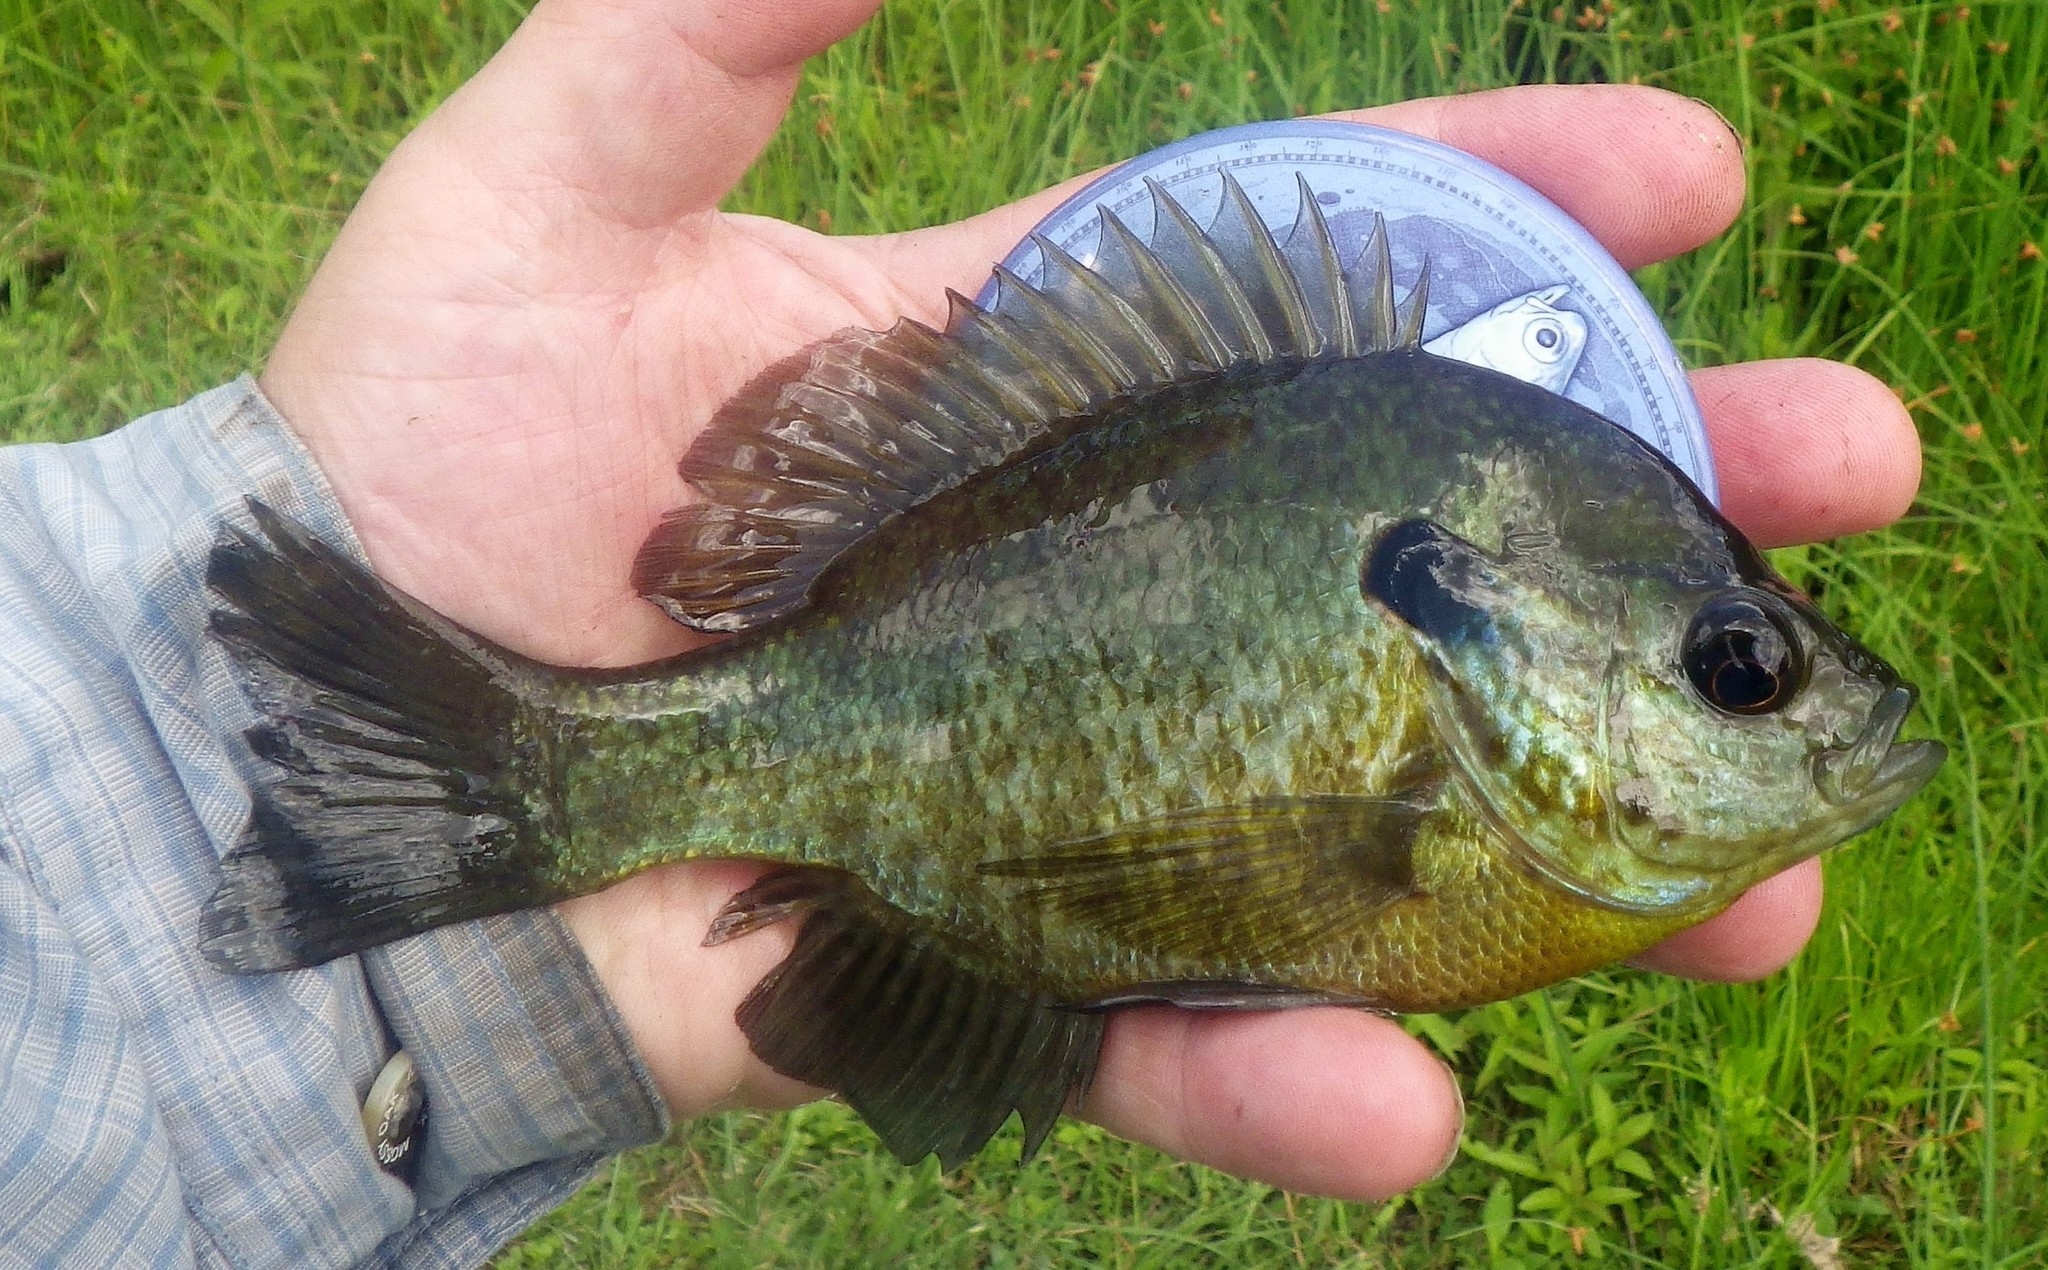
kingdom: Animalia
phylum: Chordata
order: Perciformes
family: Centrarchidae
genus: Lepomis
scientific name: Lepomis
